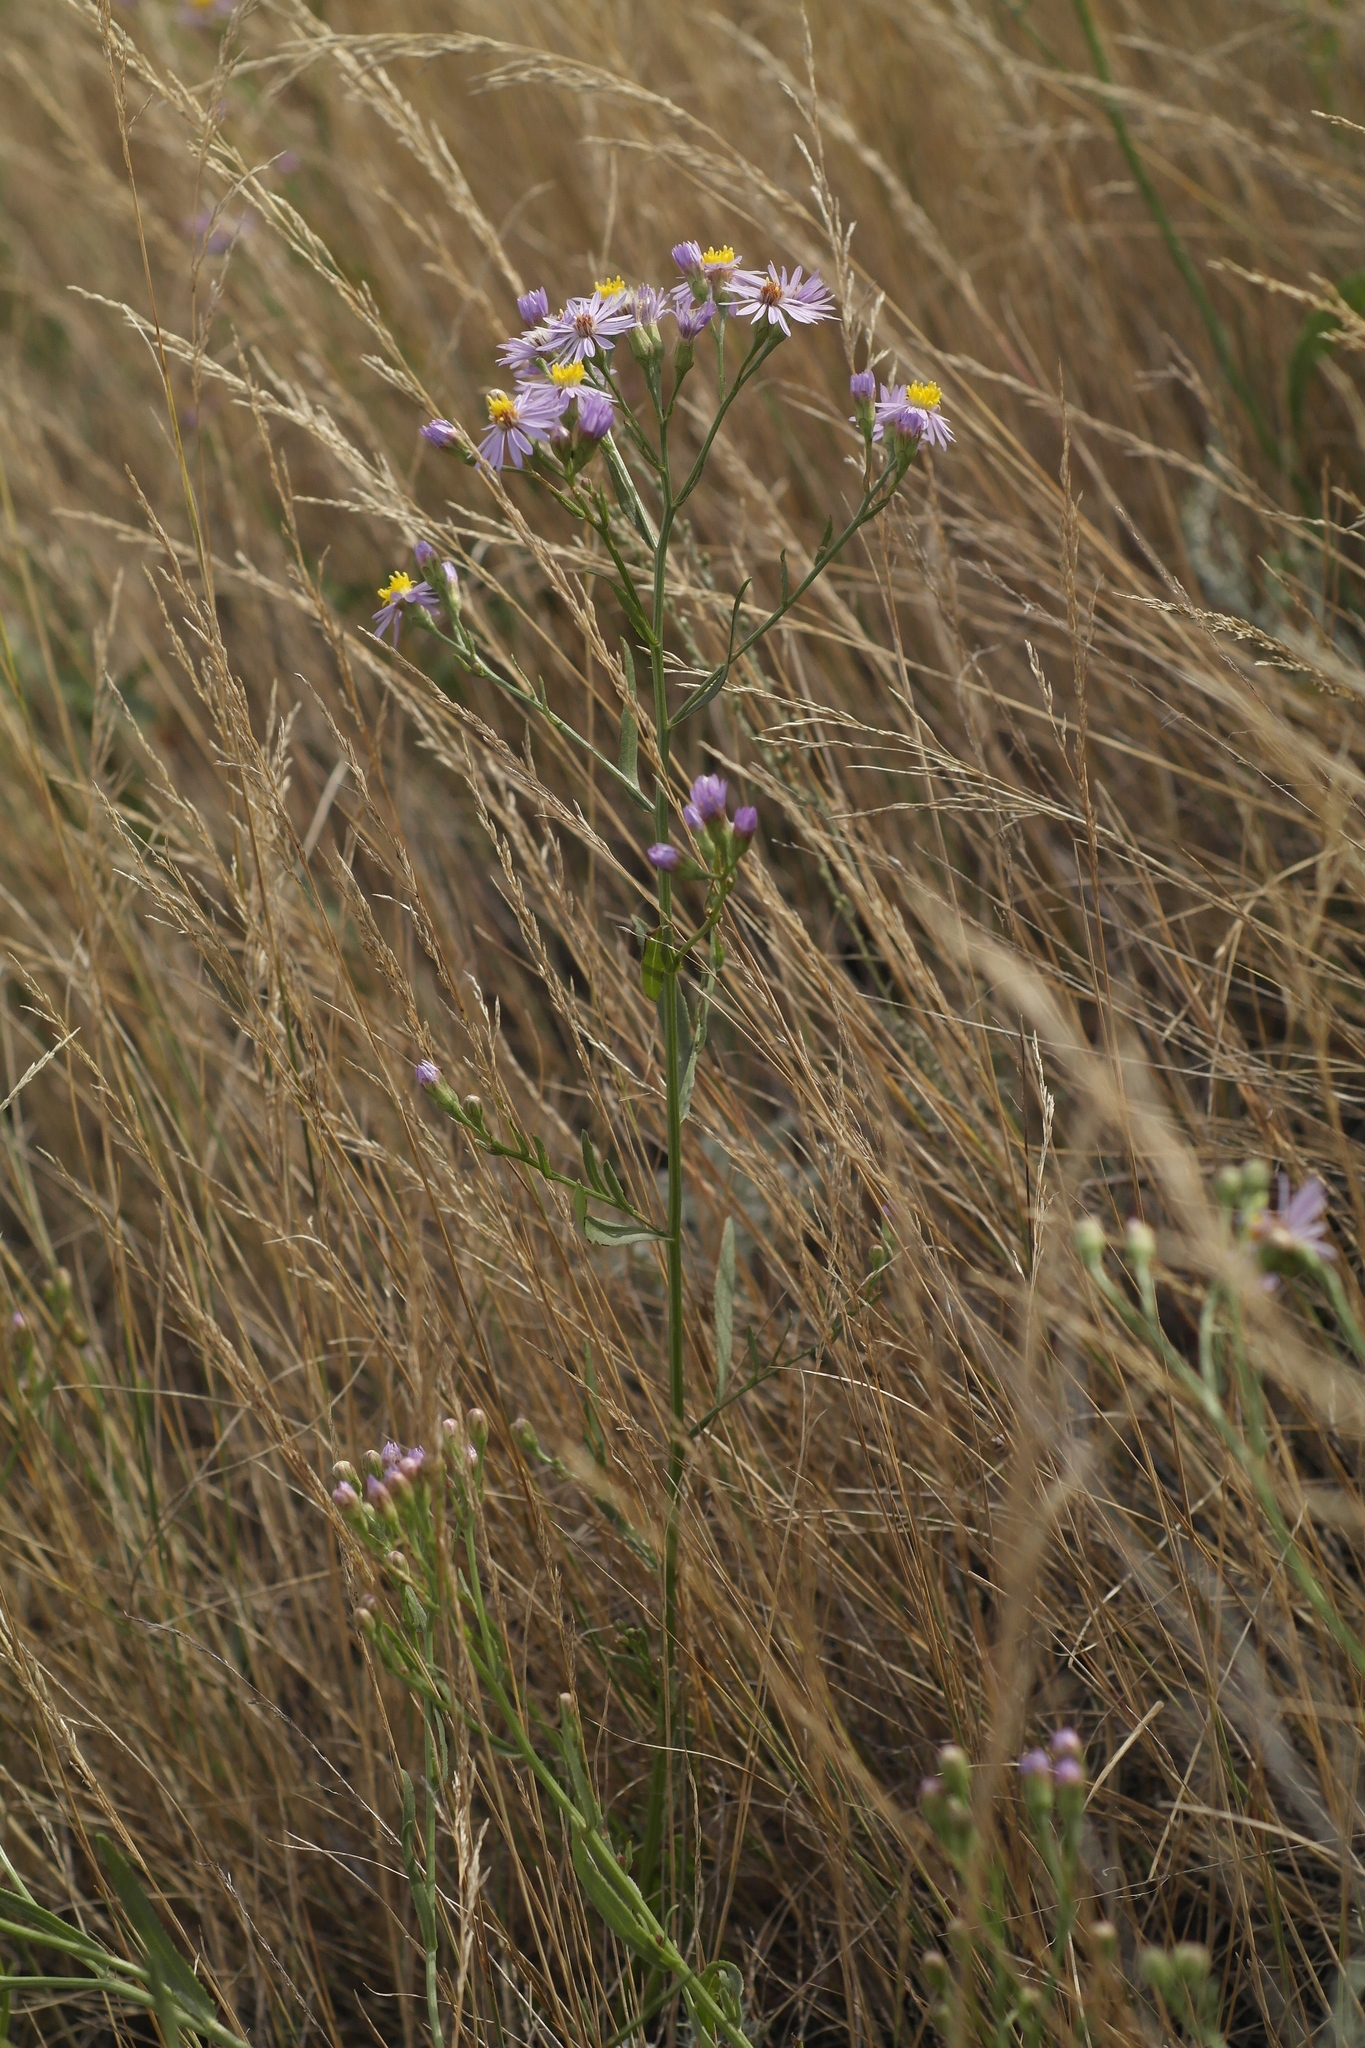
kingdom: Plantae
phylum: Tracheophyta
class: Magnoliopsida
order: Asterales
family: Asteraceae
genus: Tripolium
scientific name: Tripolium pannonicum
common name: Sea aster
